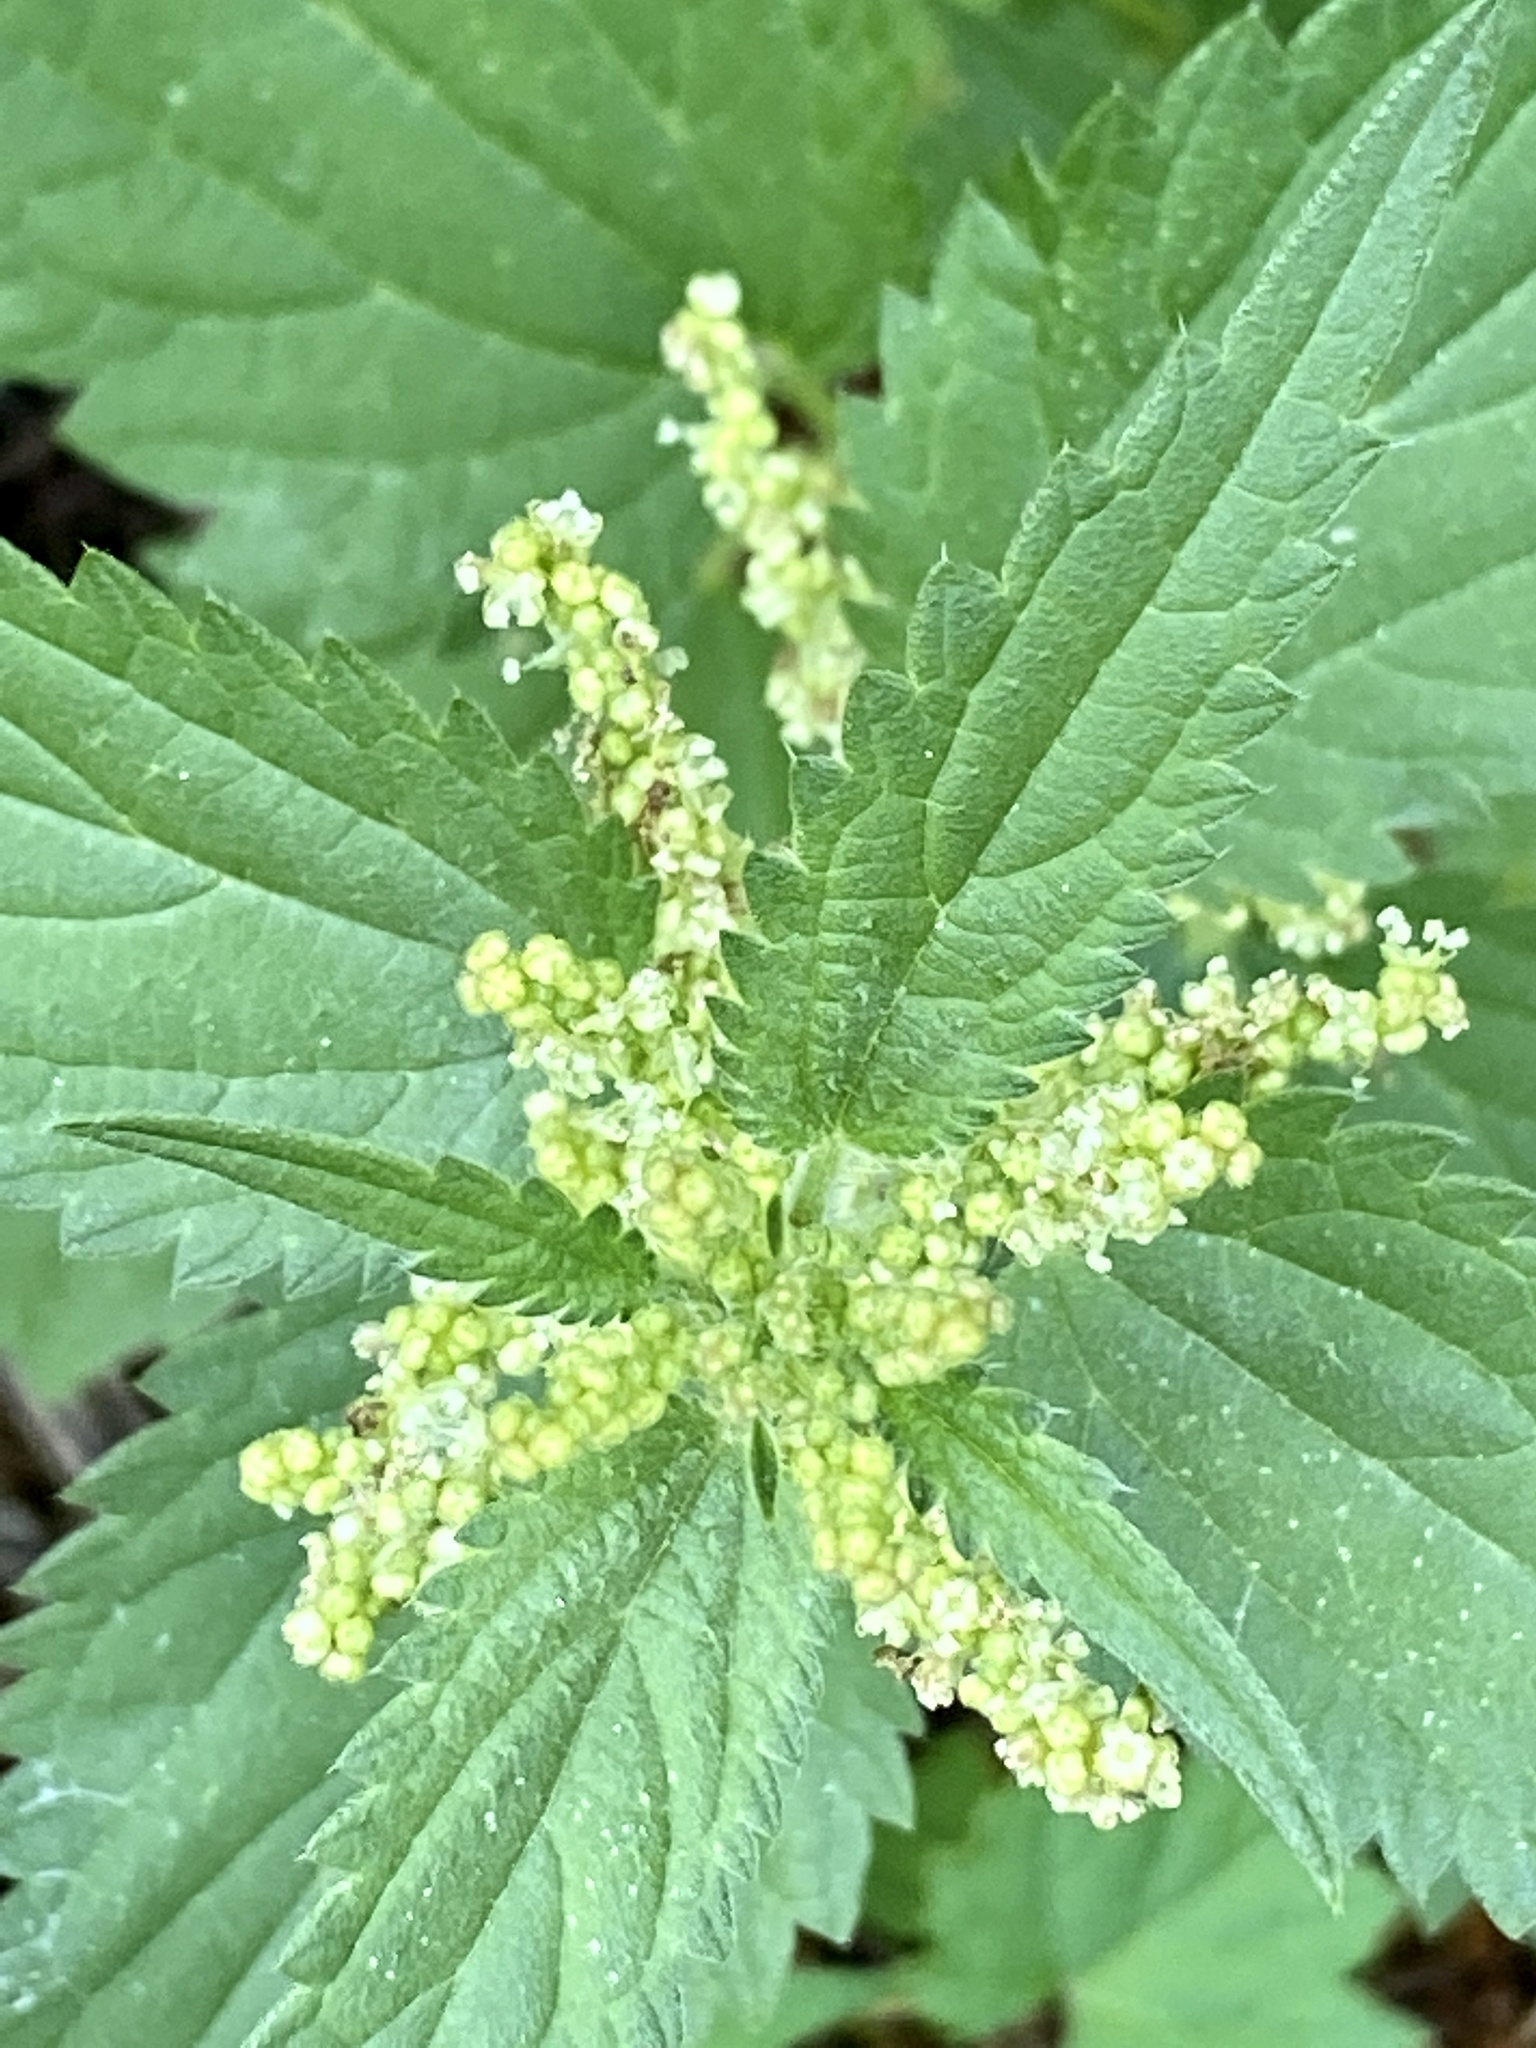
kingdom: Plantae
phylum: Tracheophyta
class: Magnoliopsida
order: Rosales
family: Urticaceae
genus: Urtica
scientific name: Urtica dioica
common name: Common nettle
